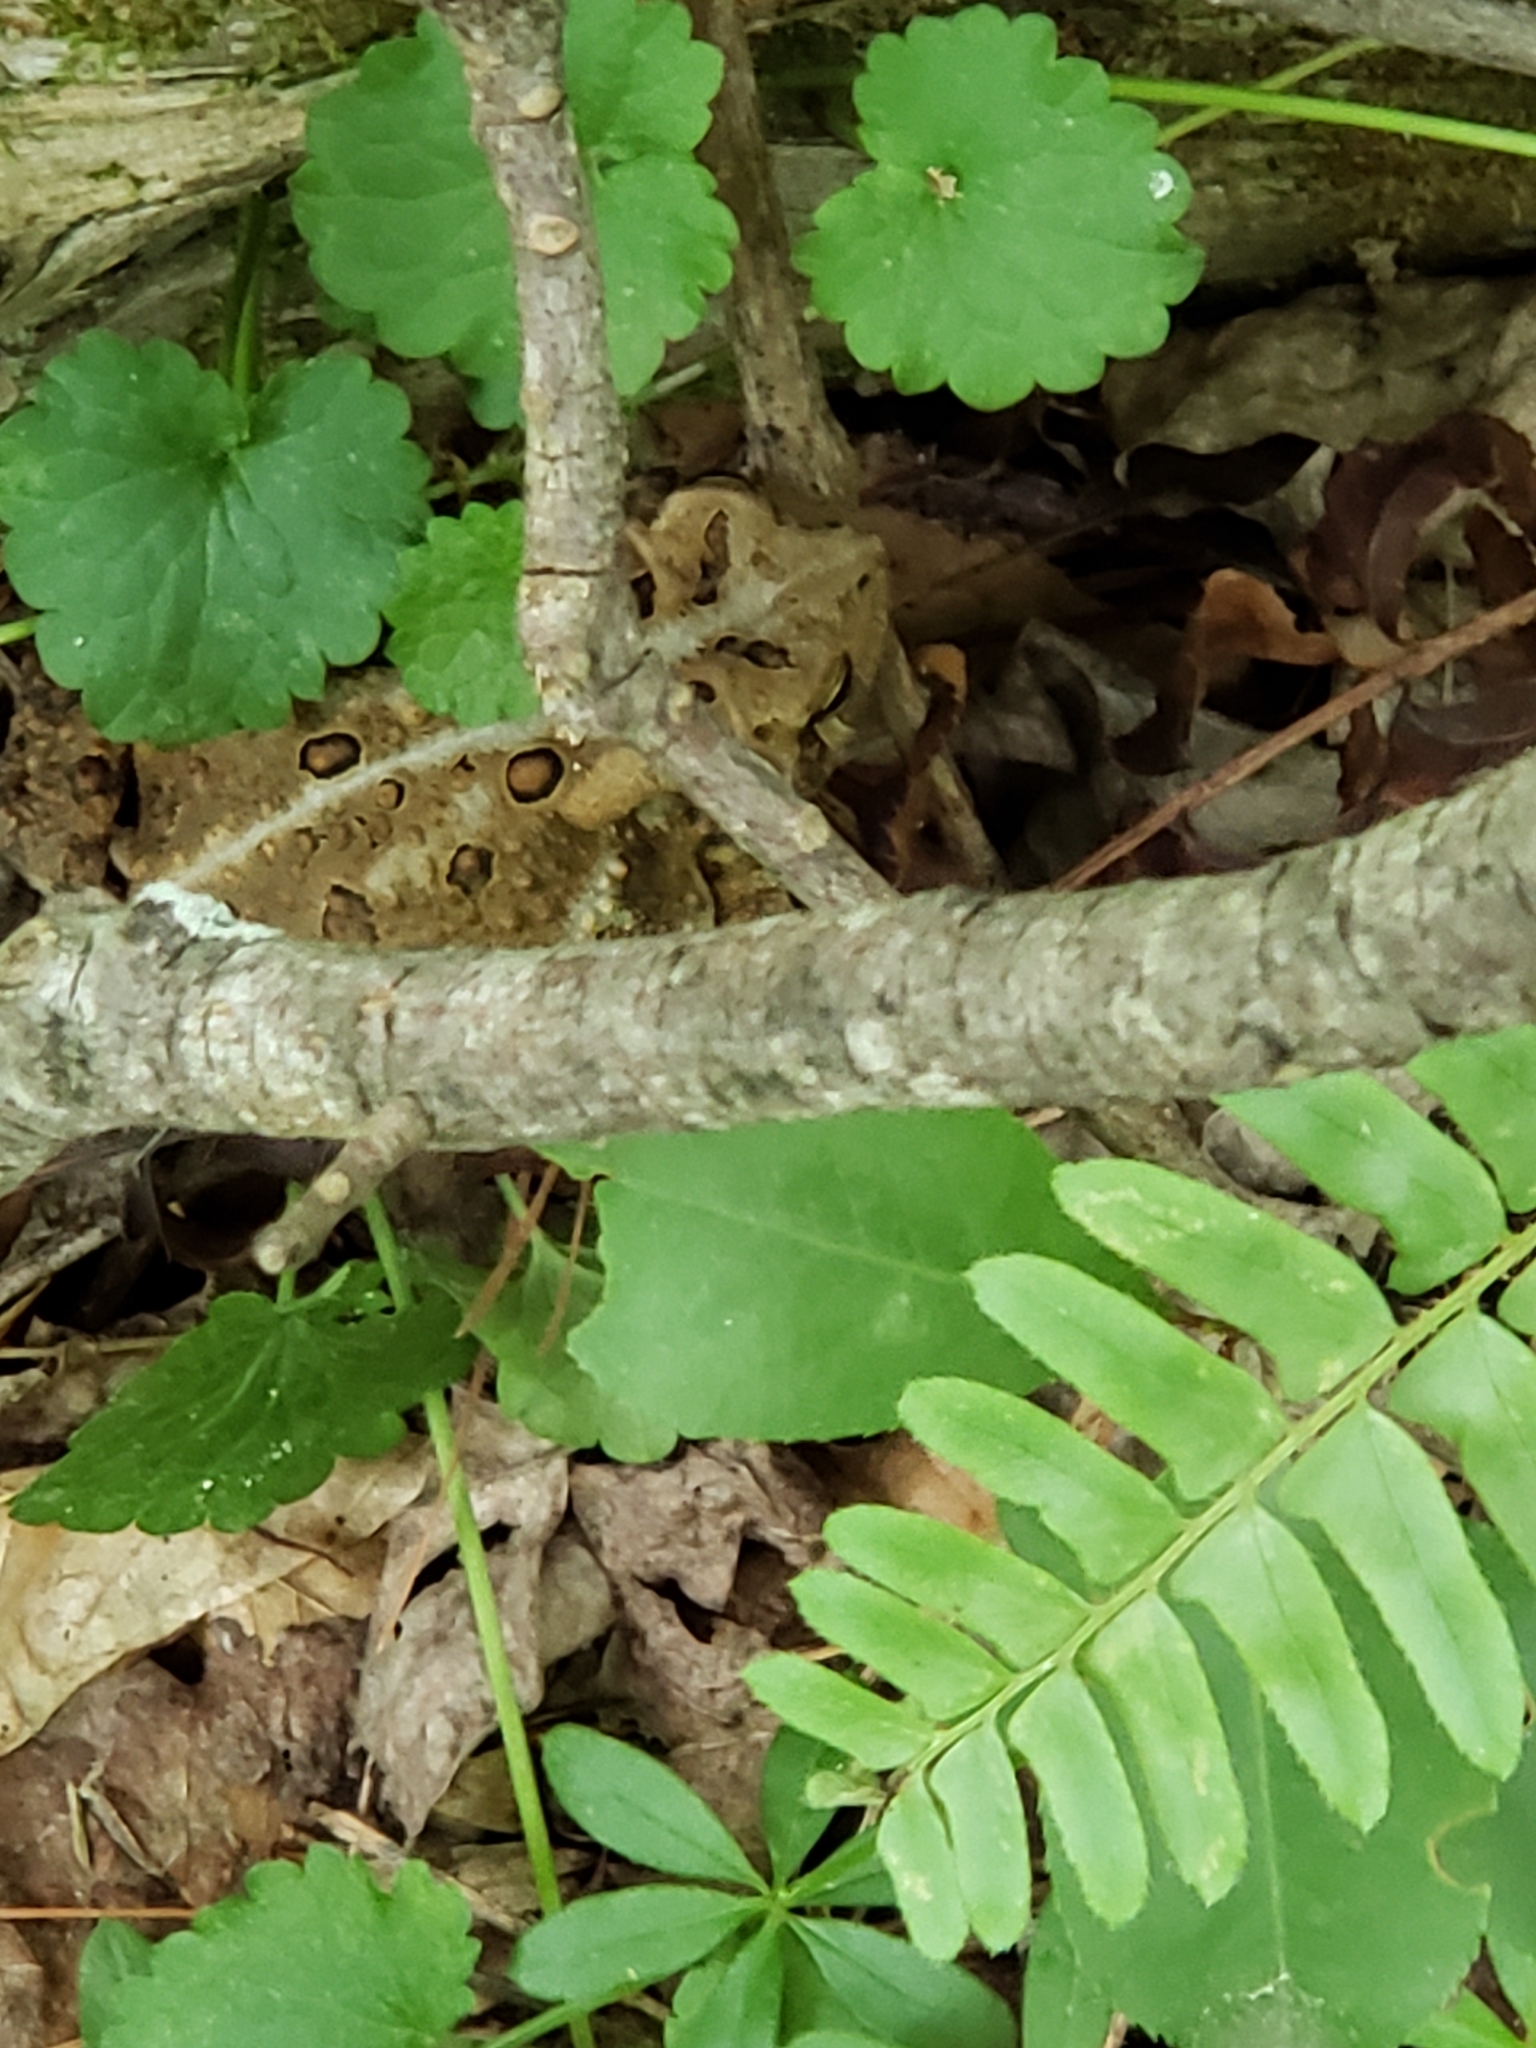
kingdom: Animalia
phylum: Chordata
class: Amphibia
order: Anura
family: Bufonidae
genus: Anaxyrus
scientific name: Anaxyrus americanus
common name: American toad
